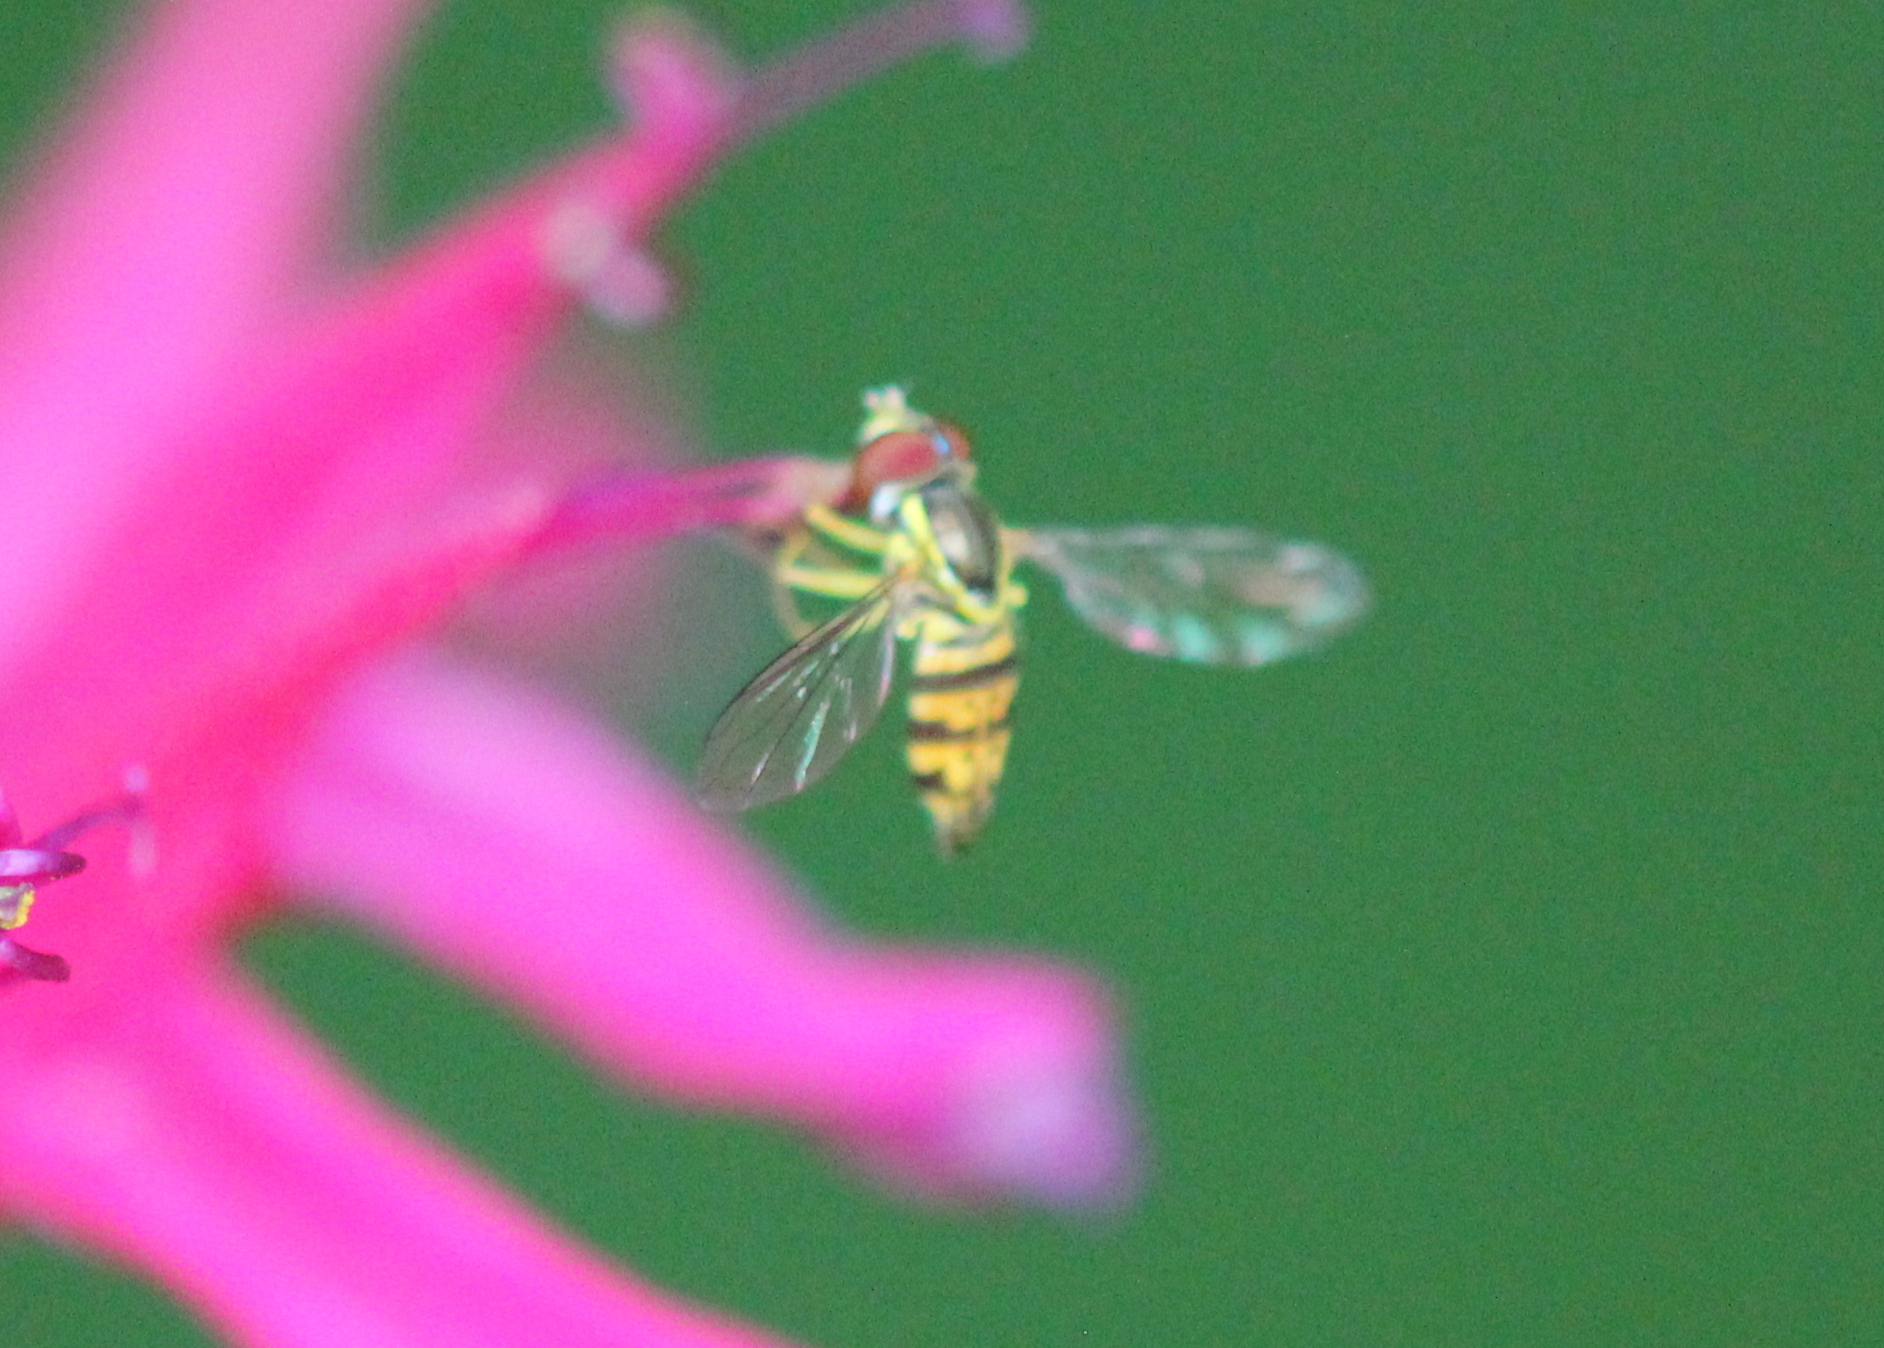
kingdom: Animalia
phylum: Arthropoda
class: Insecta
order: Diptera
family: Syrphidae
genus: Toxomerus
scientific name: Toxomerus geminatus
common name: Eastern calligrapher
